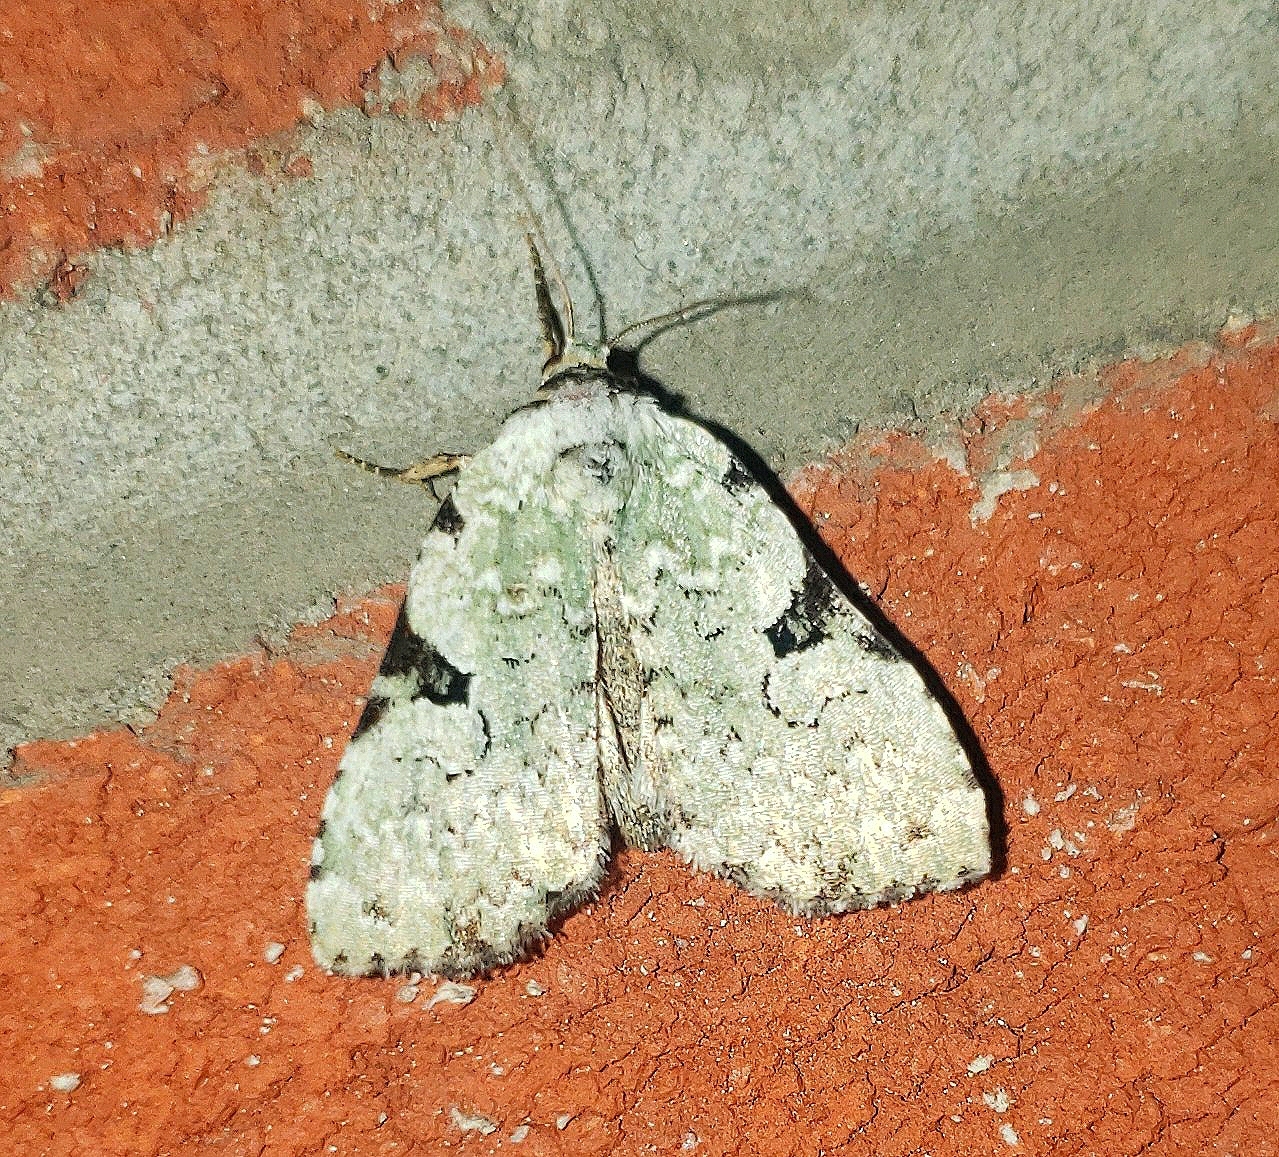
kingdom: Animalia
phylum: Arthropoda
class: Insecta
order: Lepidoptera
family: Noctuidae
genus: Leuconycta
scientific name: Leuconycta diphteroides
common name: Green leuconycta moth
